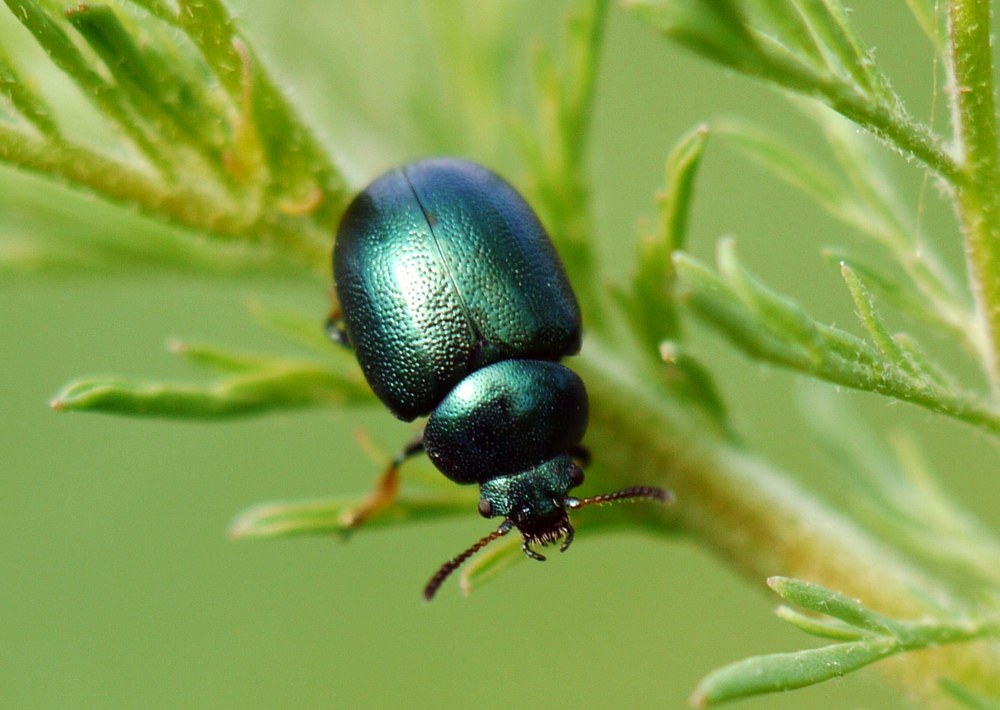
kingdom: Animalia
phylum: Arthropoda
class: Insecta
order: Coleoptera
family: Chrysomelidae
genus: Colaphellus
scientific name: Colaphellus sophiae
